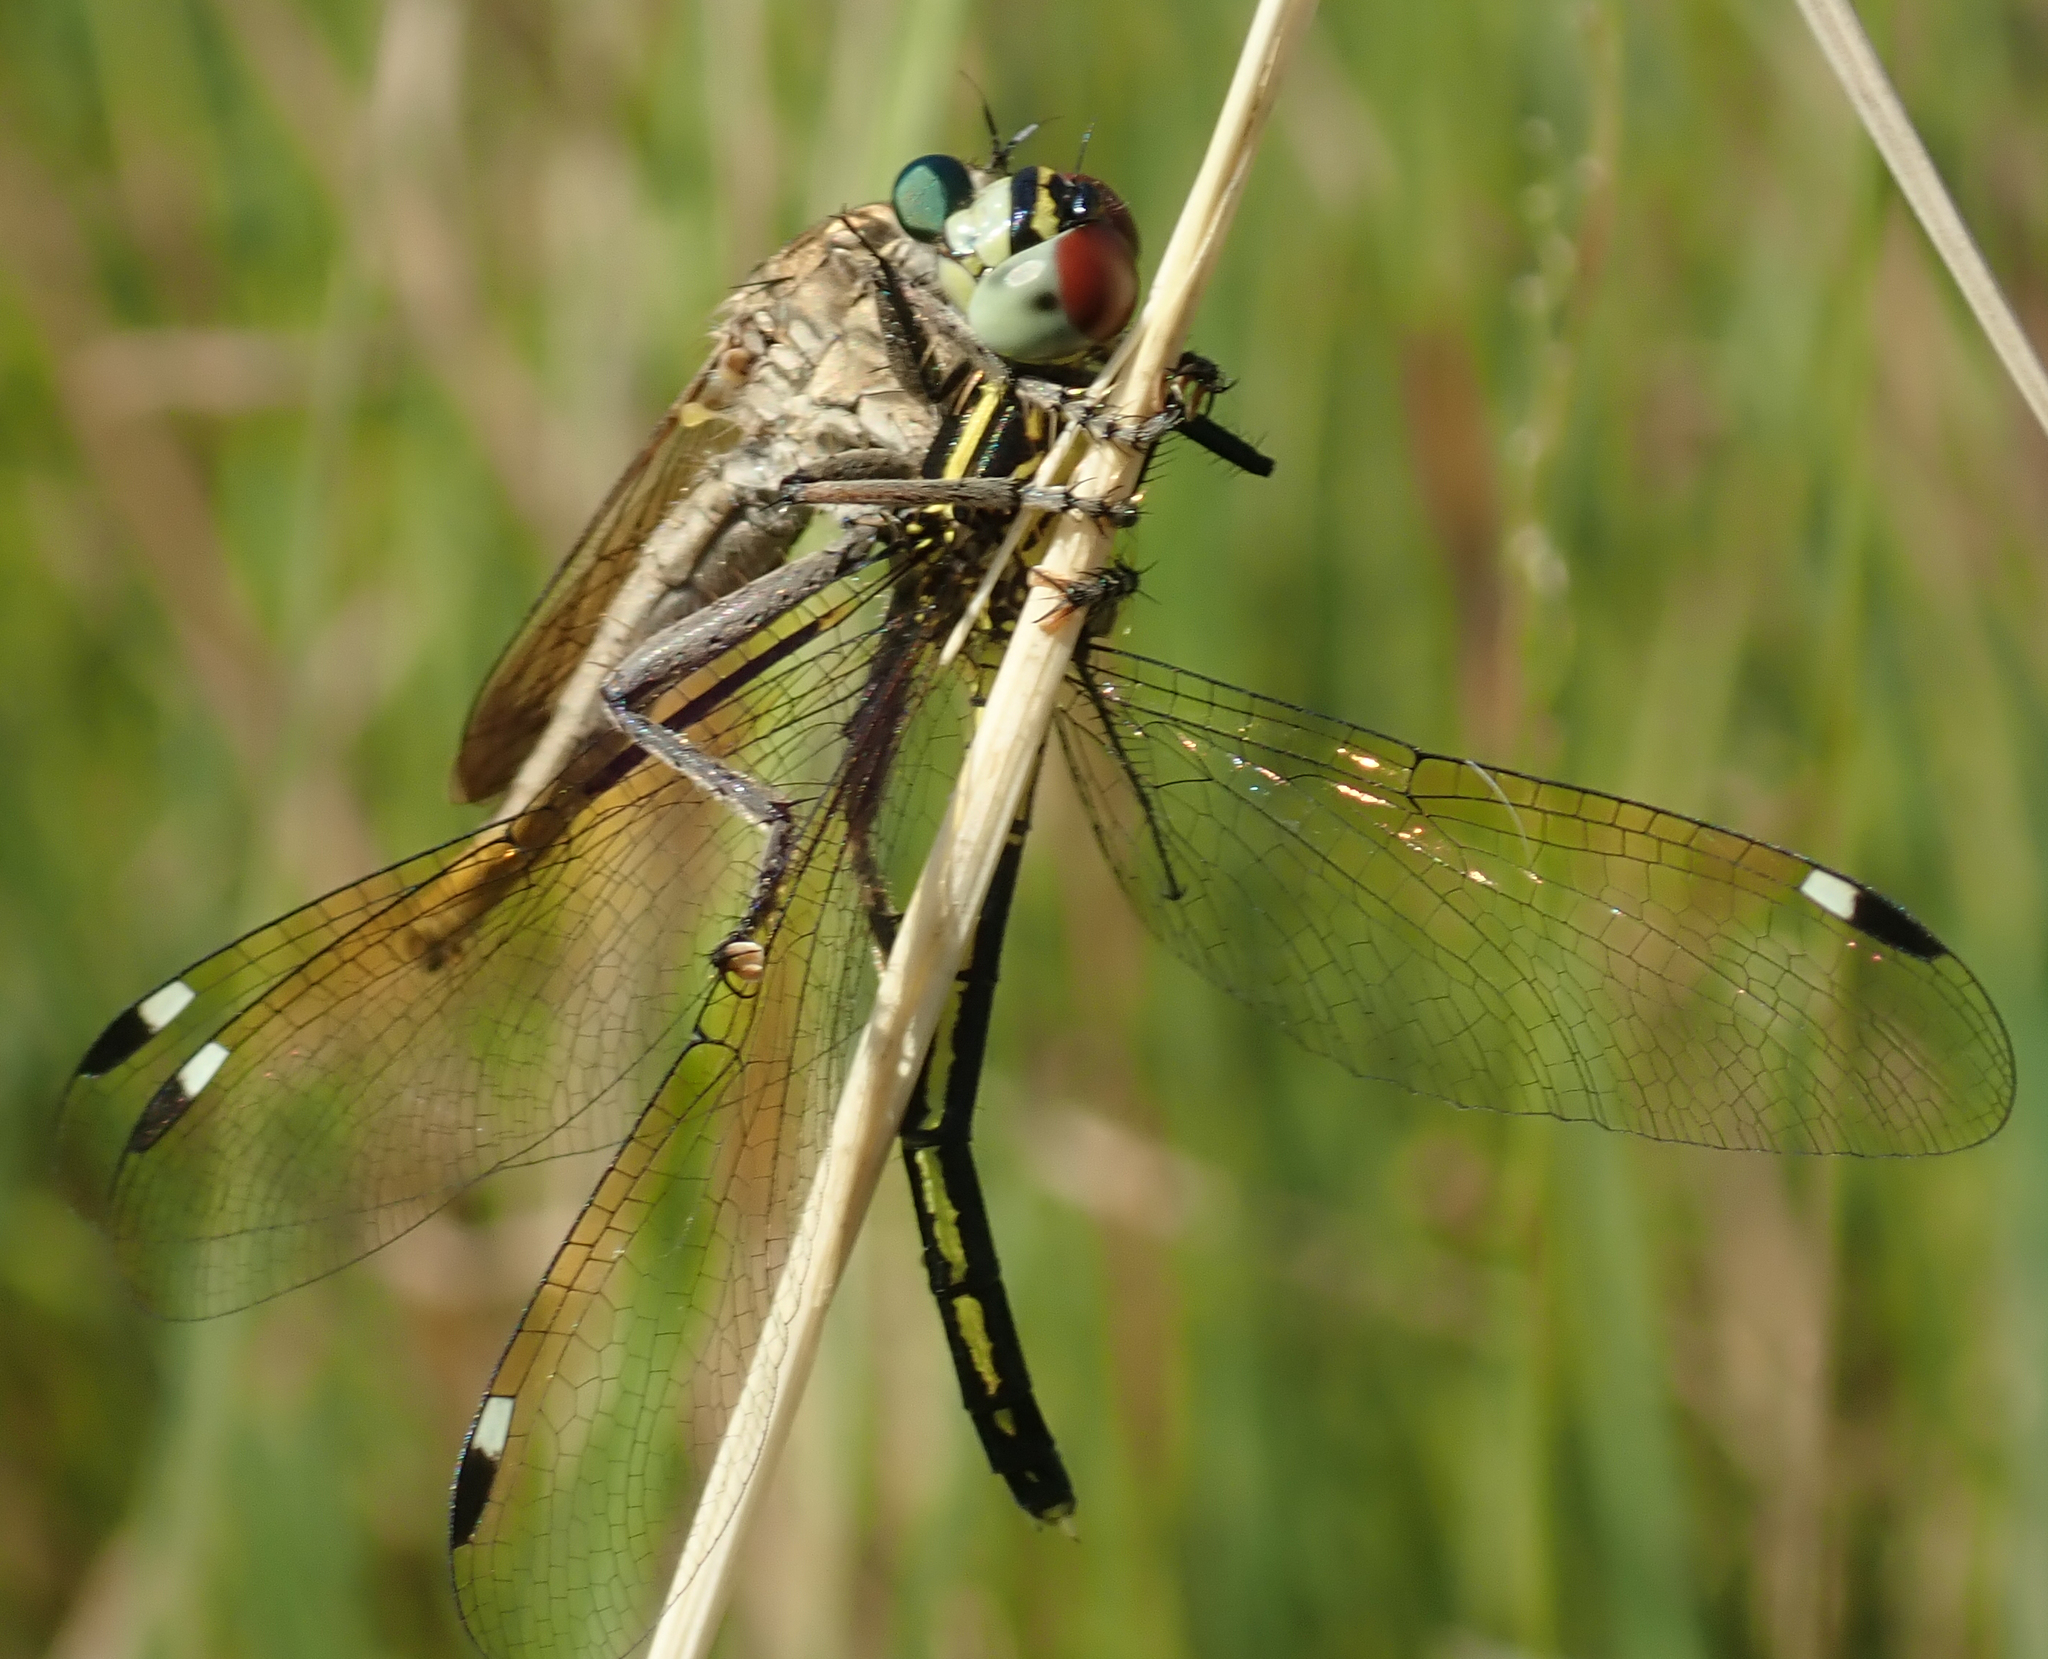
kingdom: Animalia
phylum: Arthropoda
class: Insecta
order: Odonata
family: Libellulidae
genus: Hemistigma
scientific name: Hemistigma albipunctum
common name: African pied-spot
